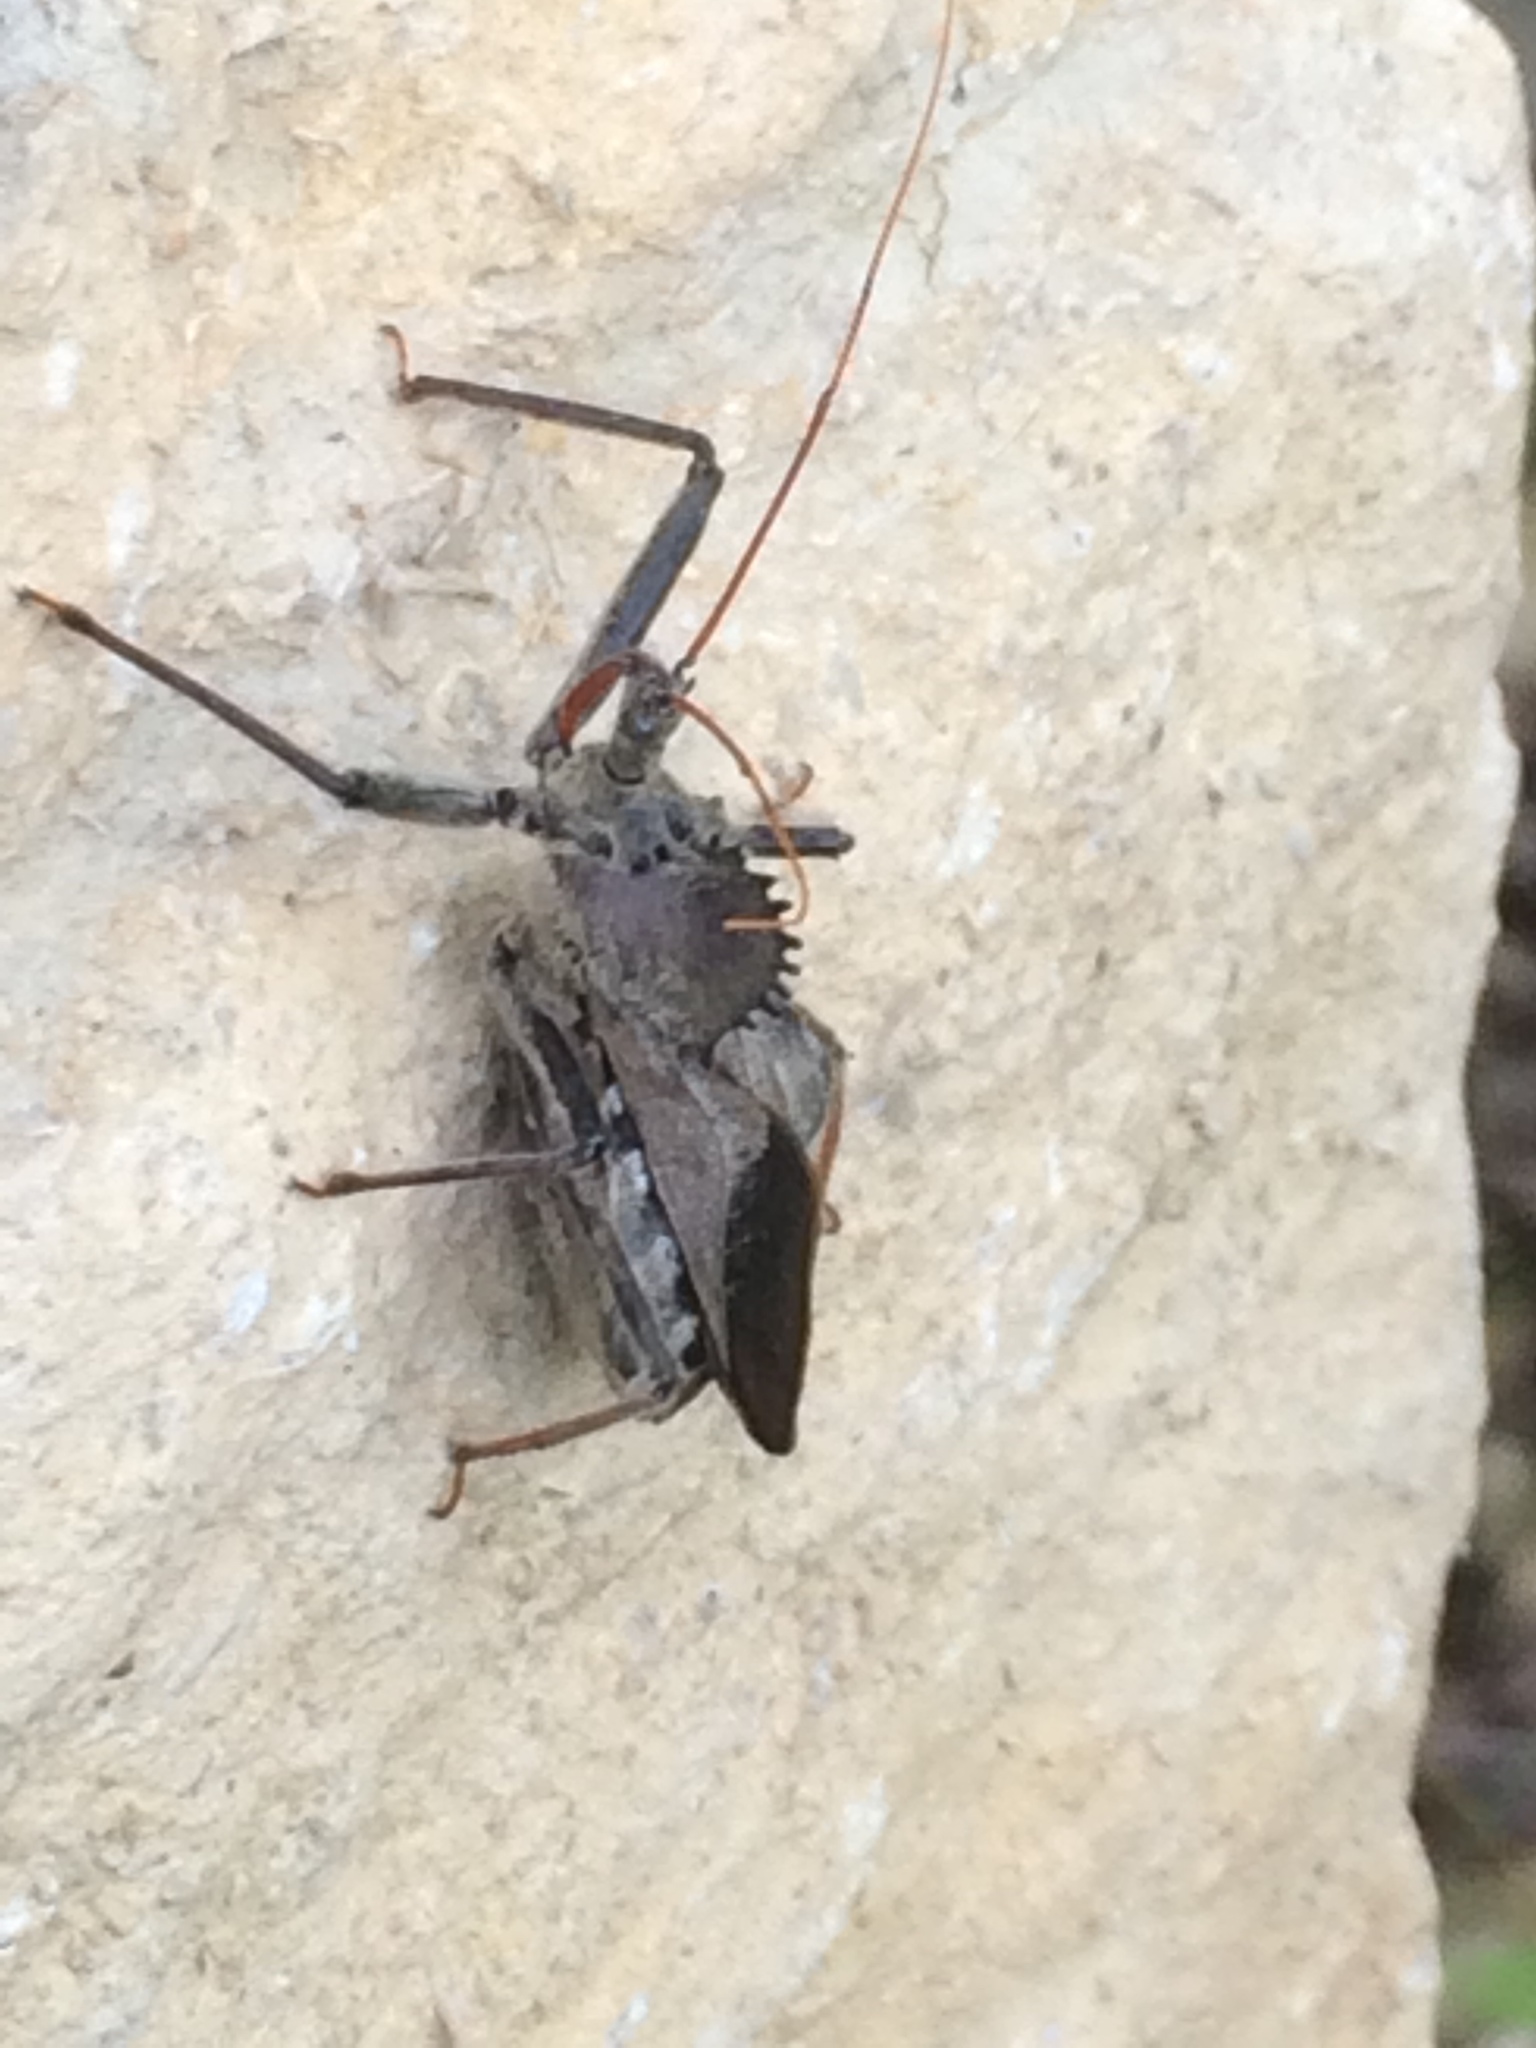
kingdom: Animalia
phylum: Arthropoda
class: Insecta
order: Hemiptera
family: Reduviidae
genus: Arilus
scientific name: Arilus cristatus
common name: North american wheel bug
